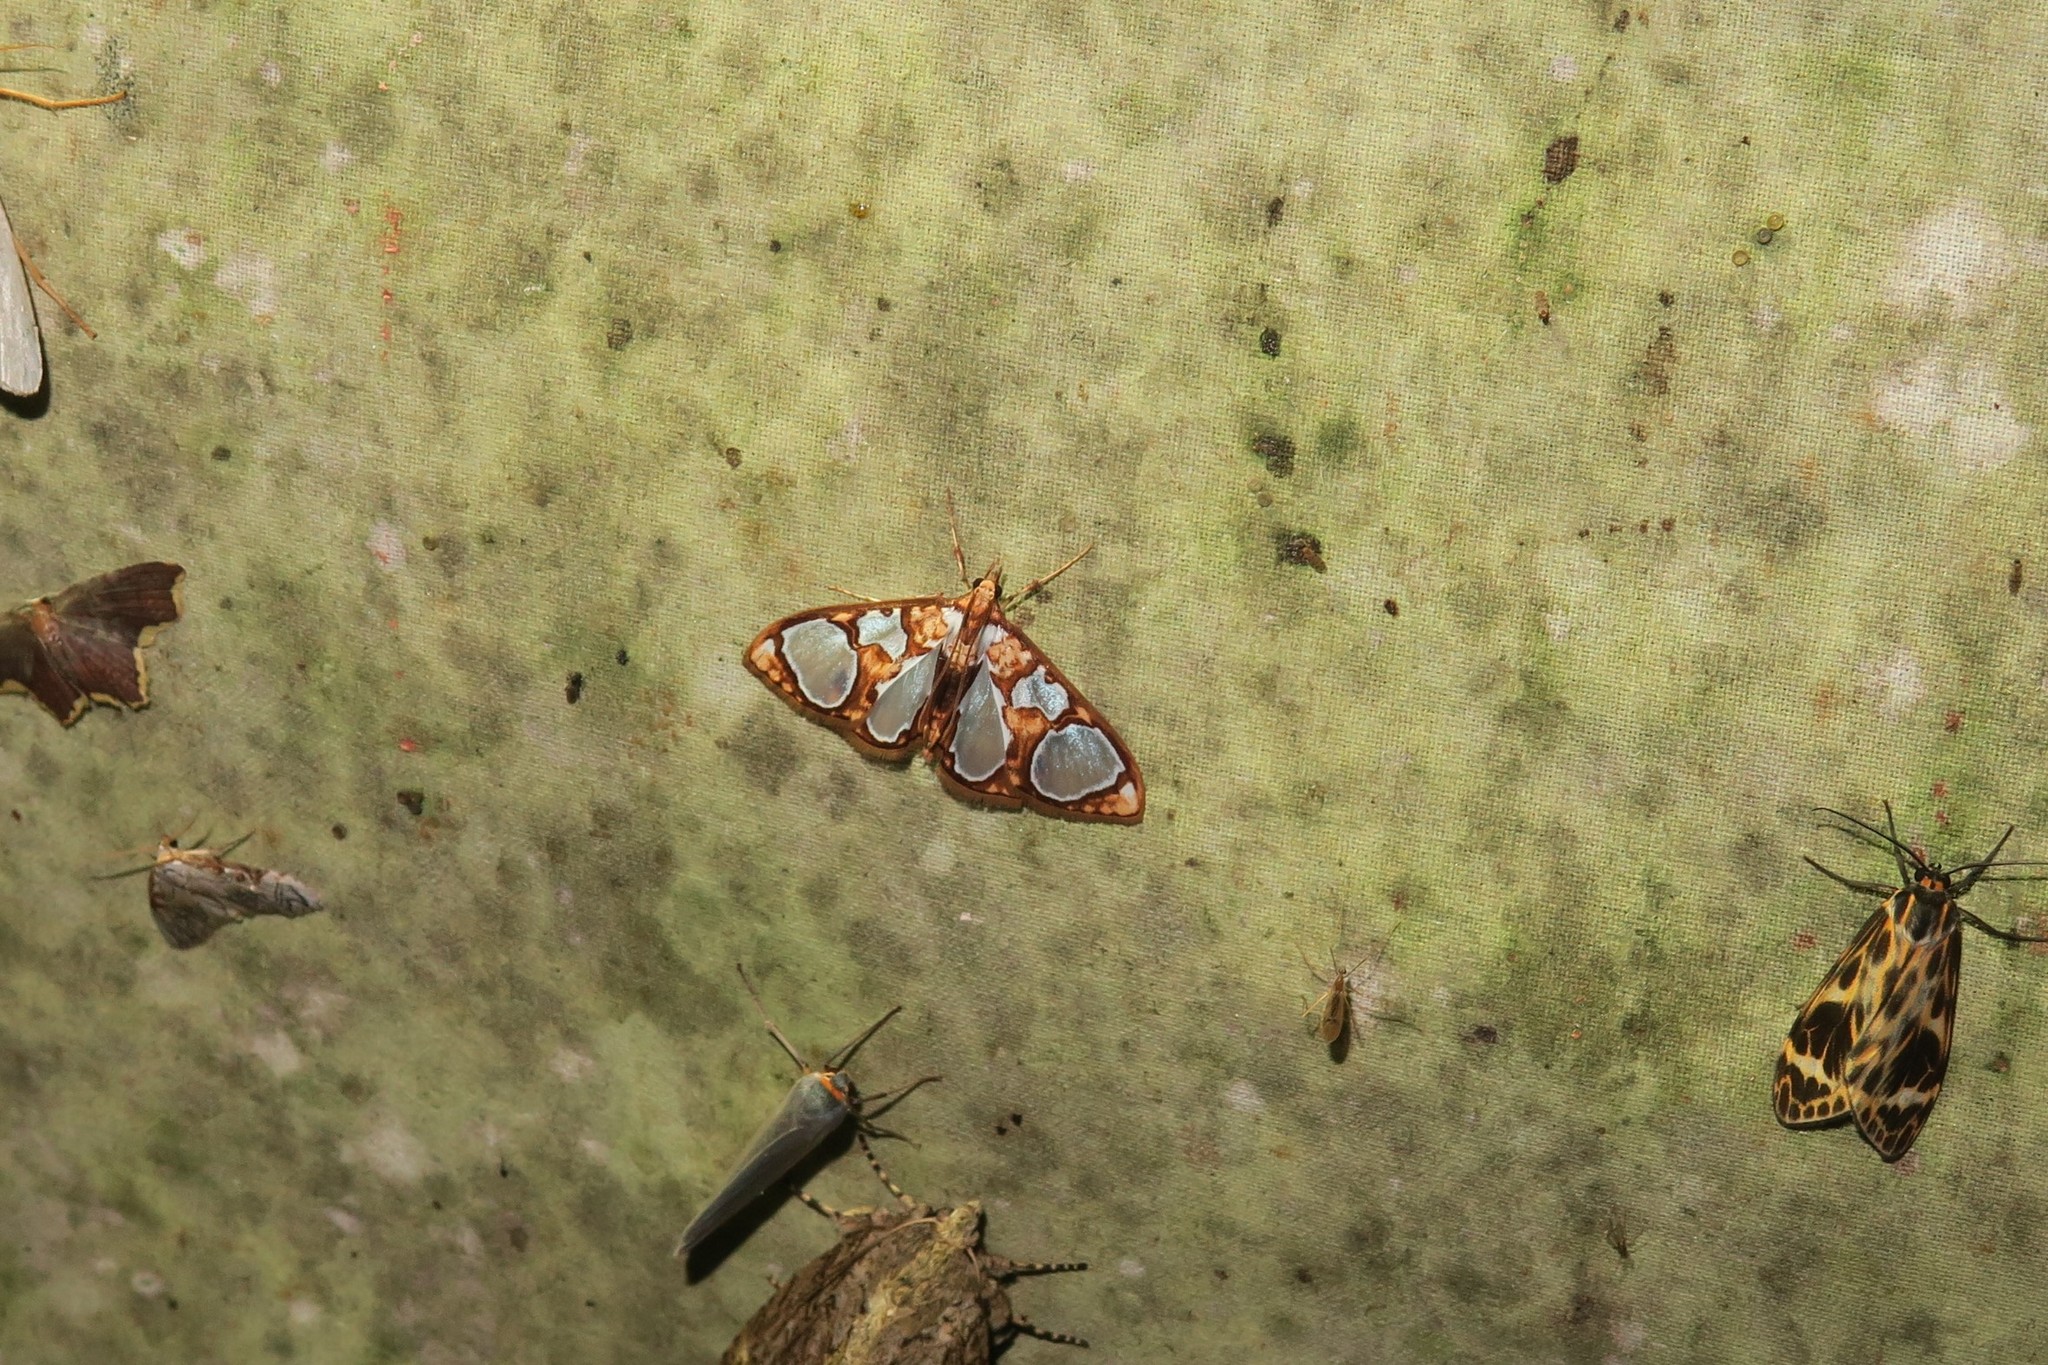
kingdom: Animalia
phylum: Arthropoda
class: Insecta
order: Lepidoptera
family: Crambidae
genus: Glyphodes
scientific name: Glyphodes grandisalis
